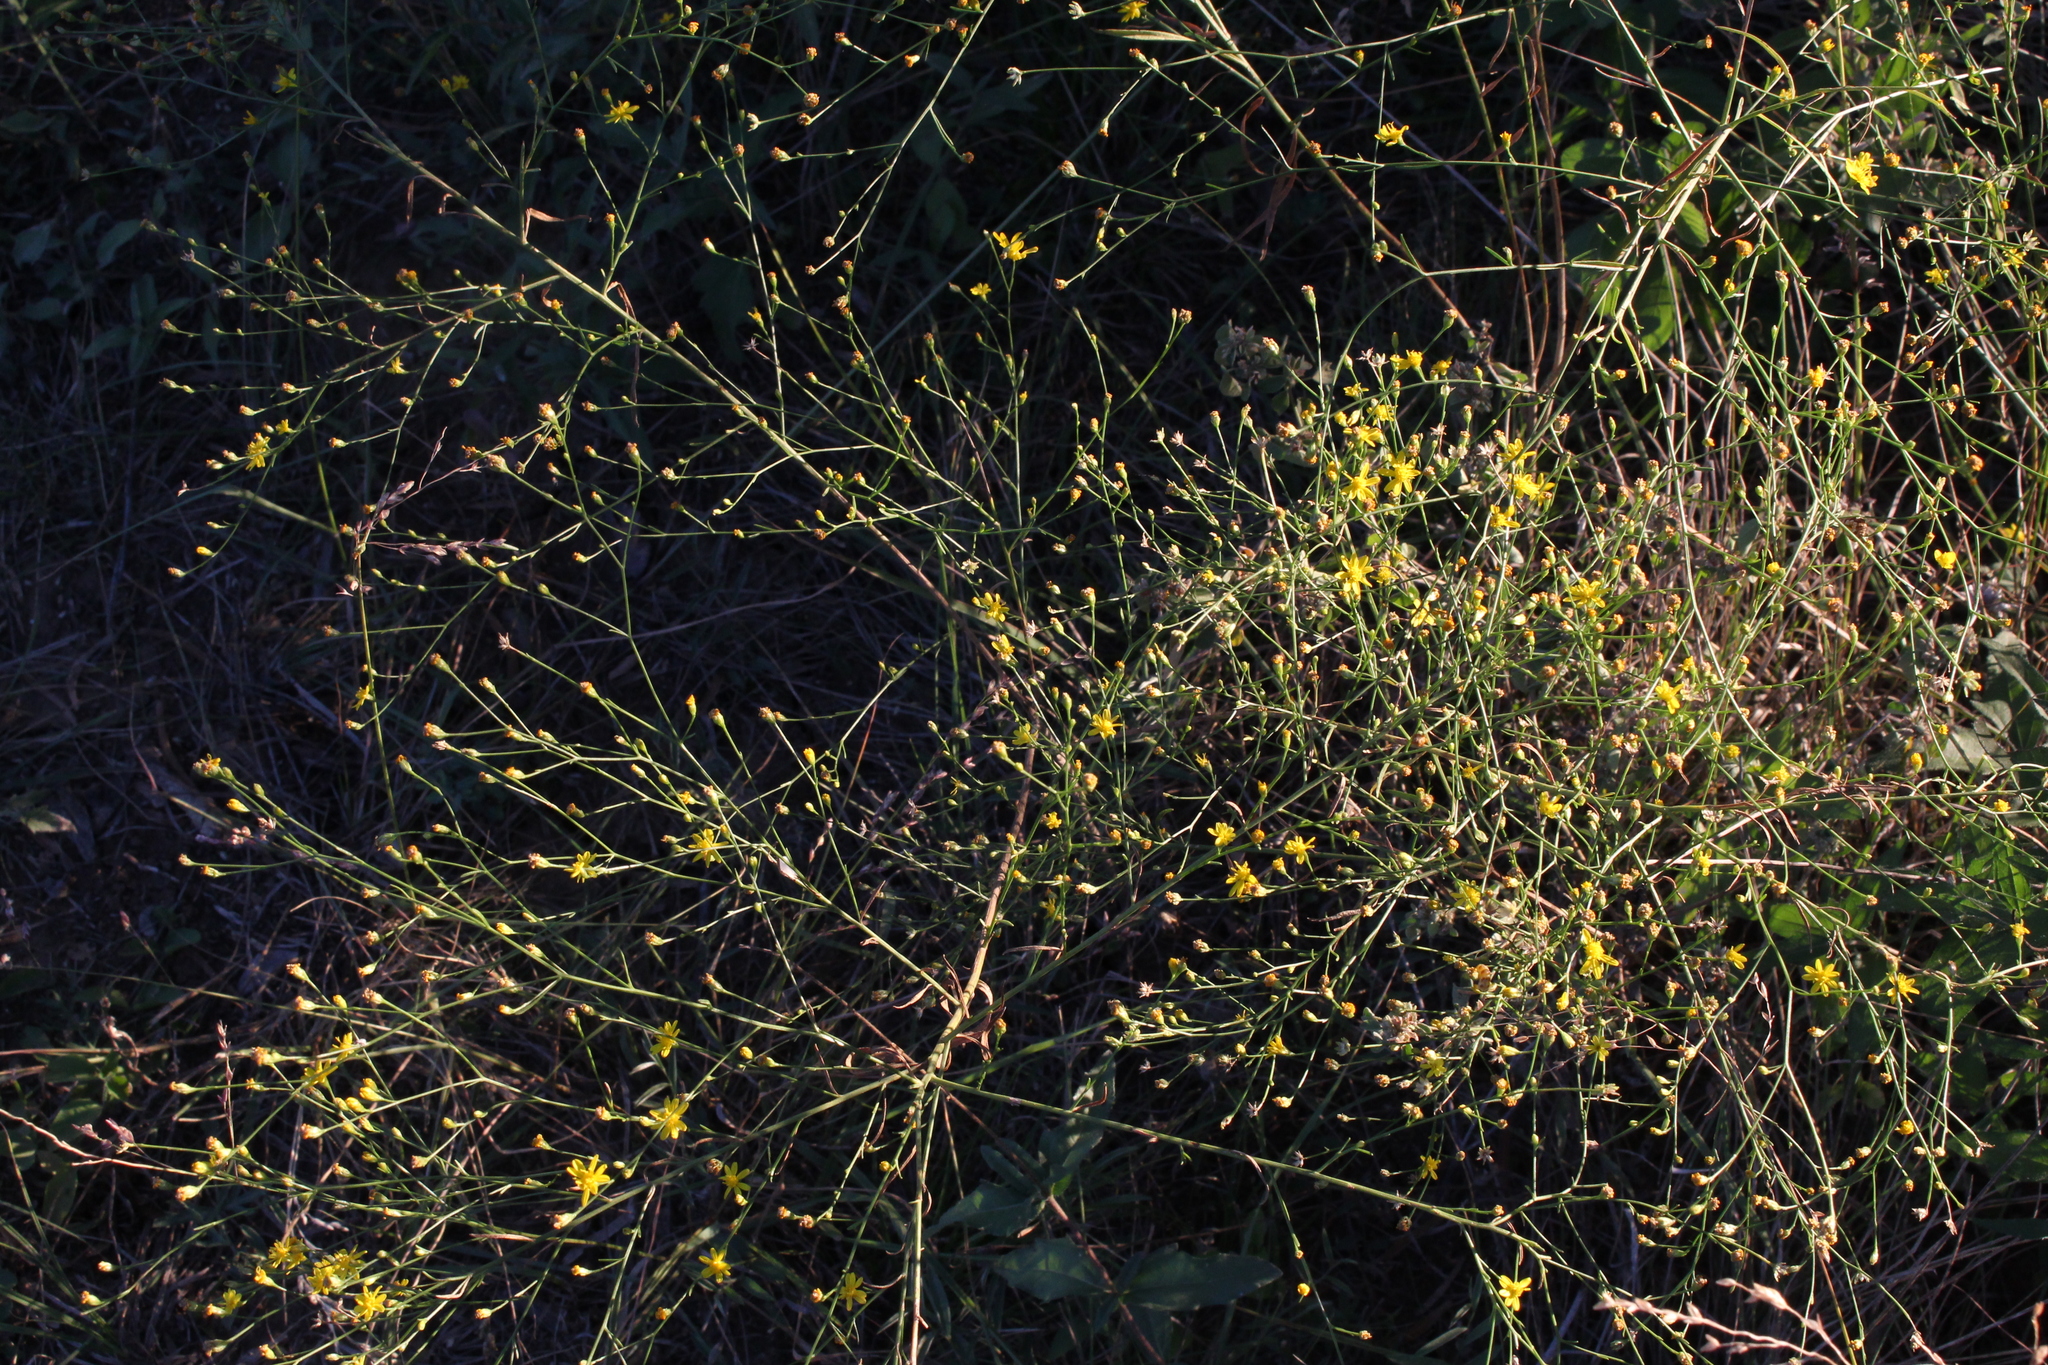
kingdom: Plantae
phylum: Tracheophyta
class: Magnoliopsida
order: Asterales
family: Asteraceae
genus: Gutierrezia
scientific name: Gutierrezia texana
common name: Texas snakeweed
